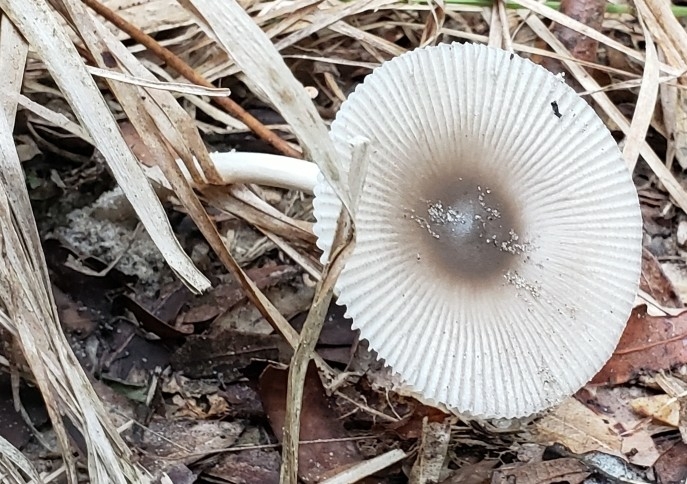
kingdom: Fungi
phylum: Basidiomycota
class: Agaricomycetes
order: Agaricales
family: Amanitaceae
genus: Amanita
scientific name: Amanita vaginata
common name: Grisette
